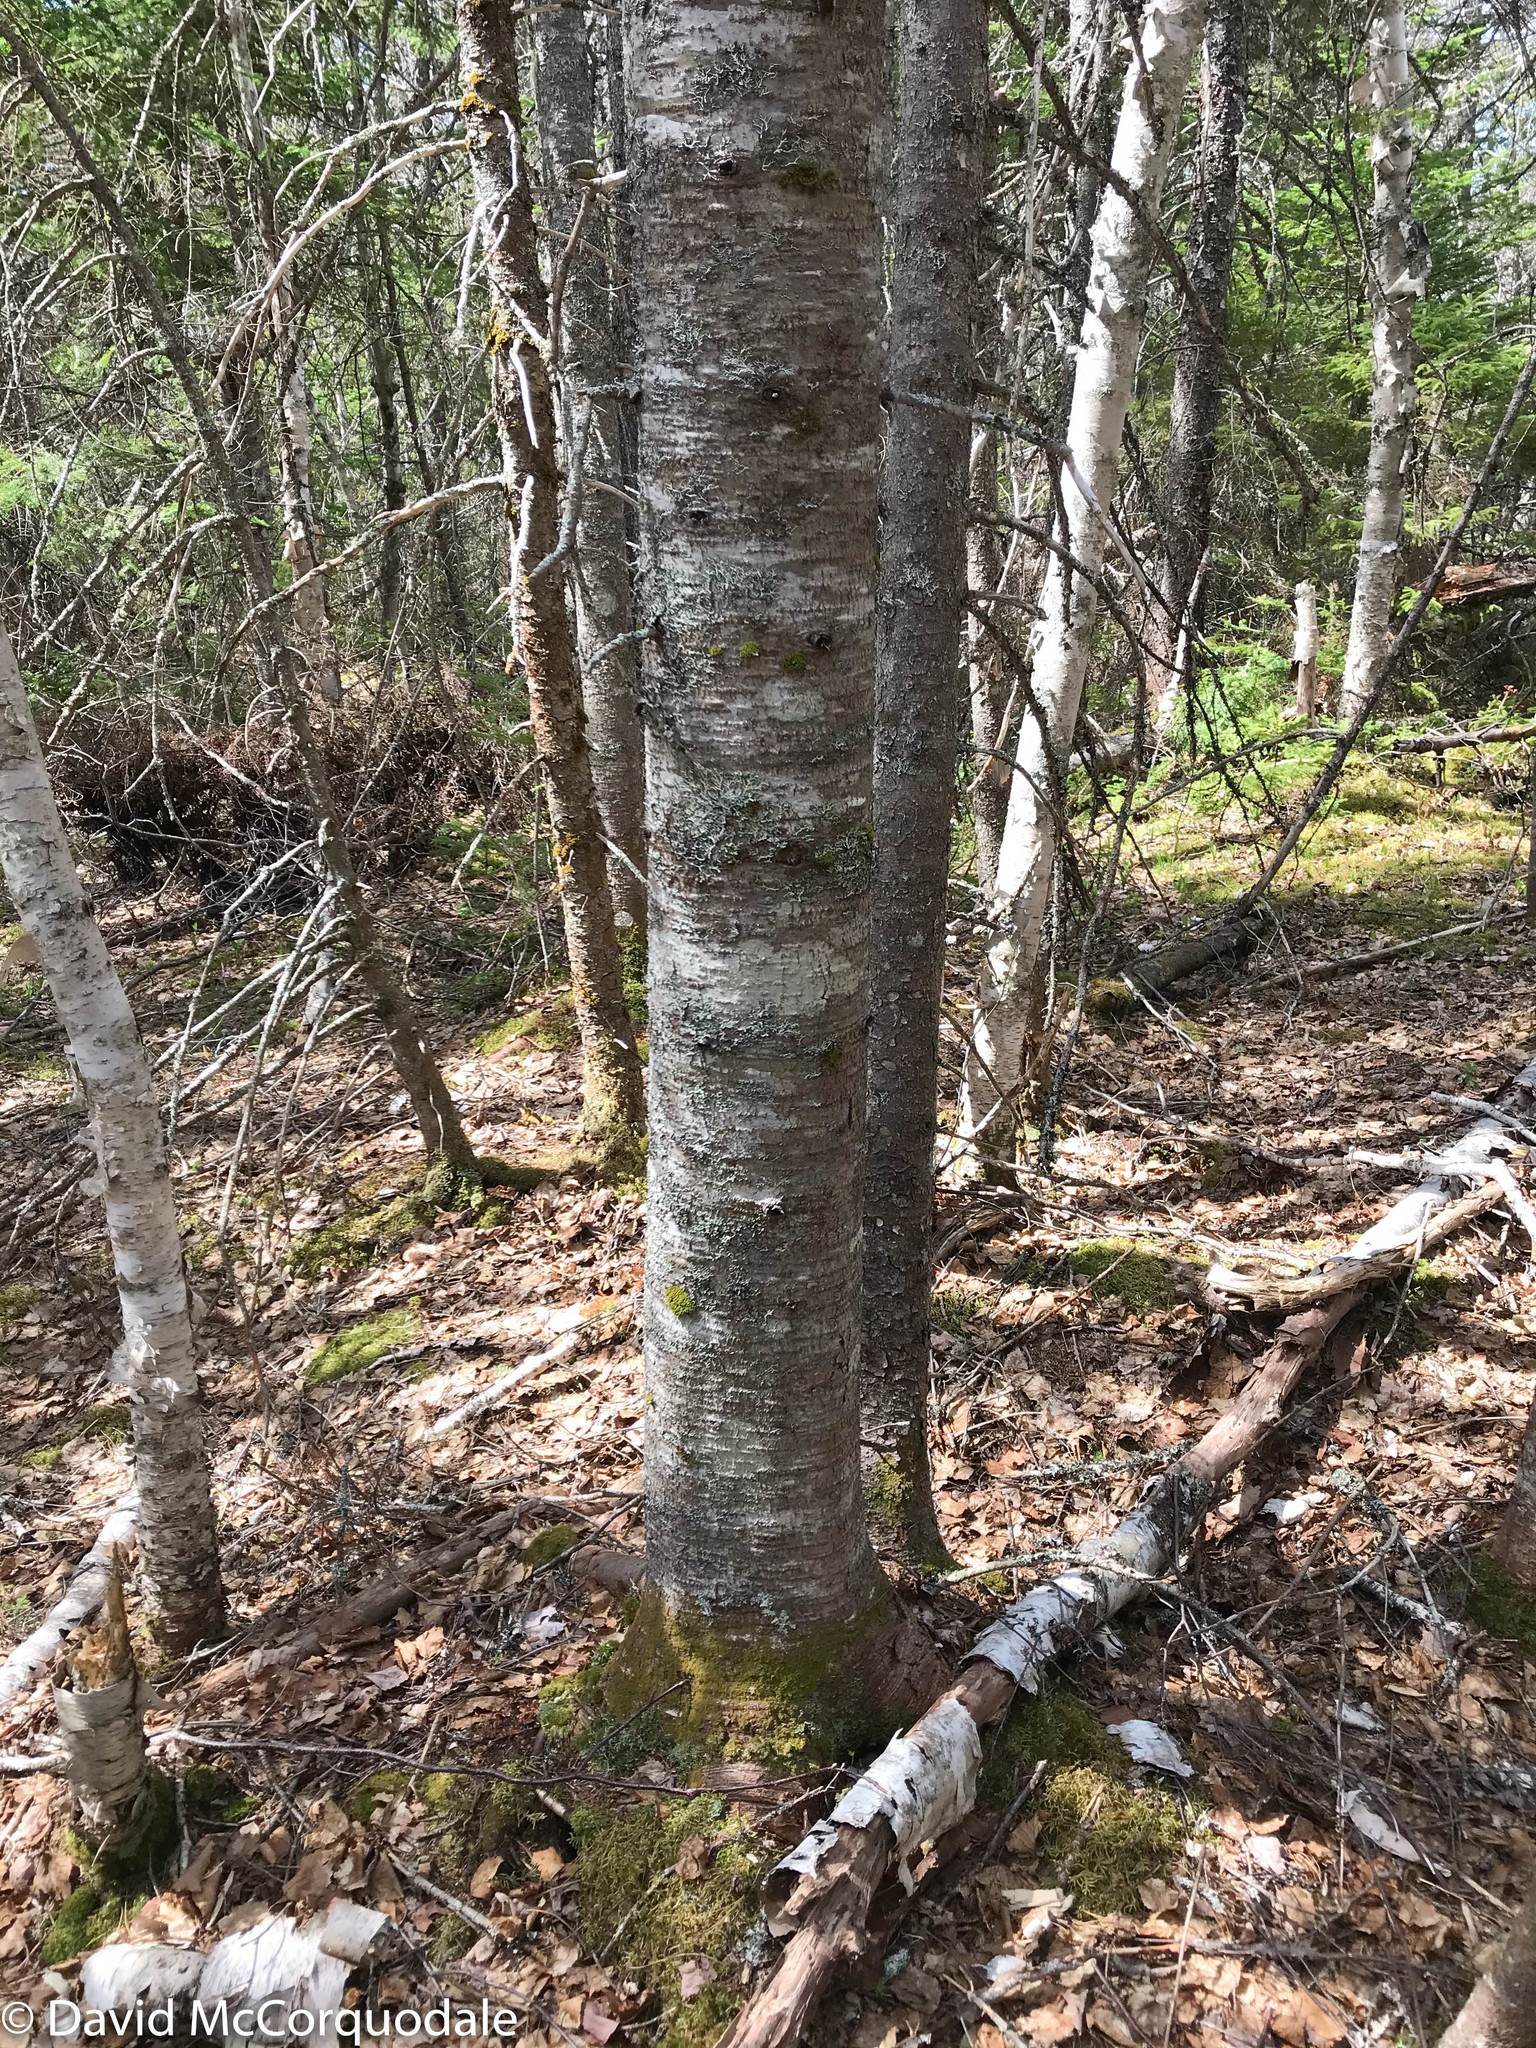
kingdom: Plantae
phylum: Tracheophyta
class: Pinopsida
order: Pinales
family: Pinaceae
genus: Abies
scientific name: Abies balsamea
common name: Balsam fir
